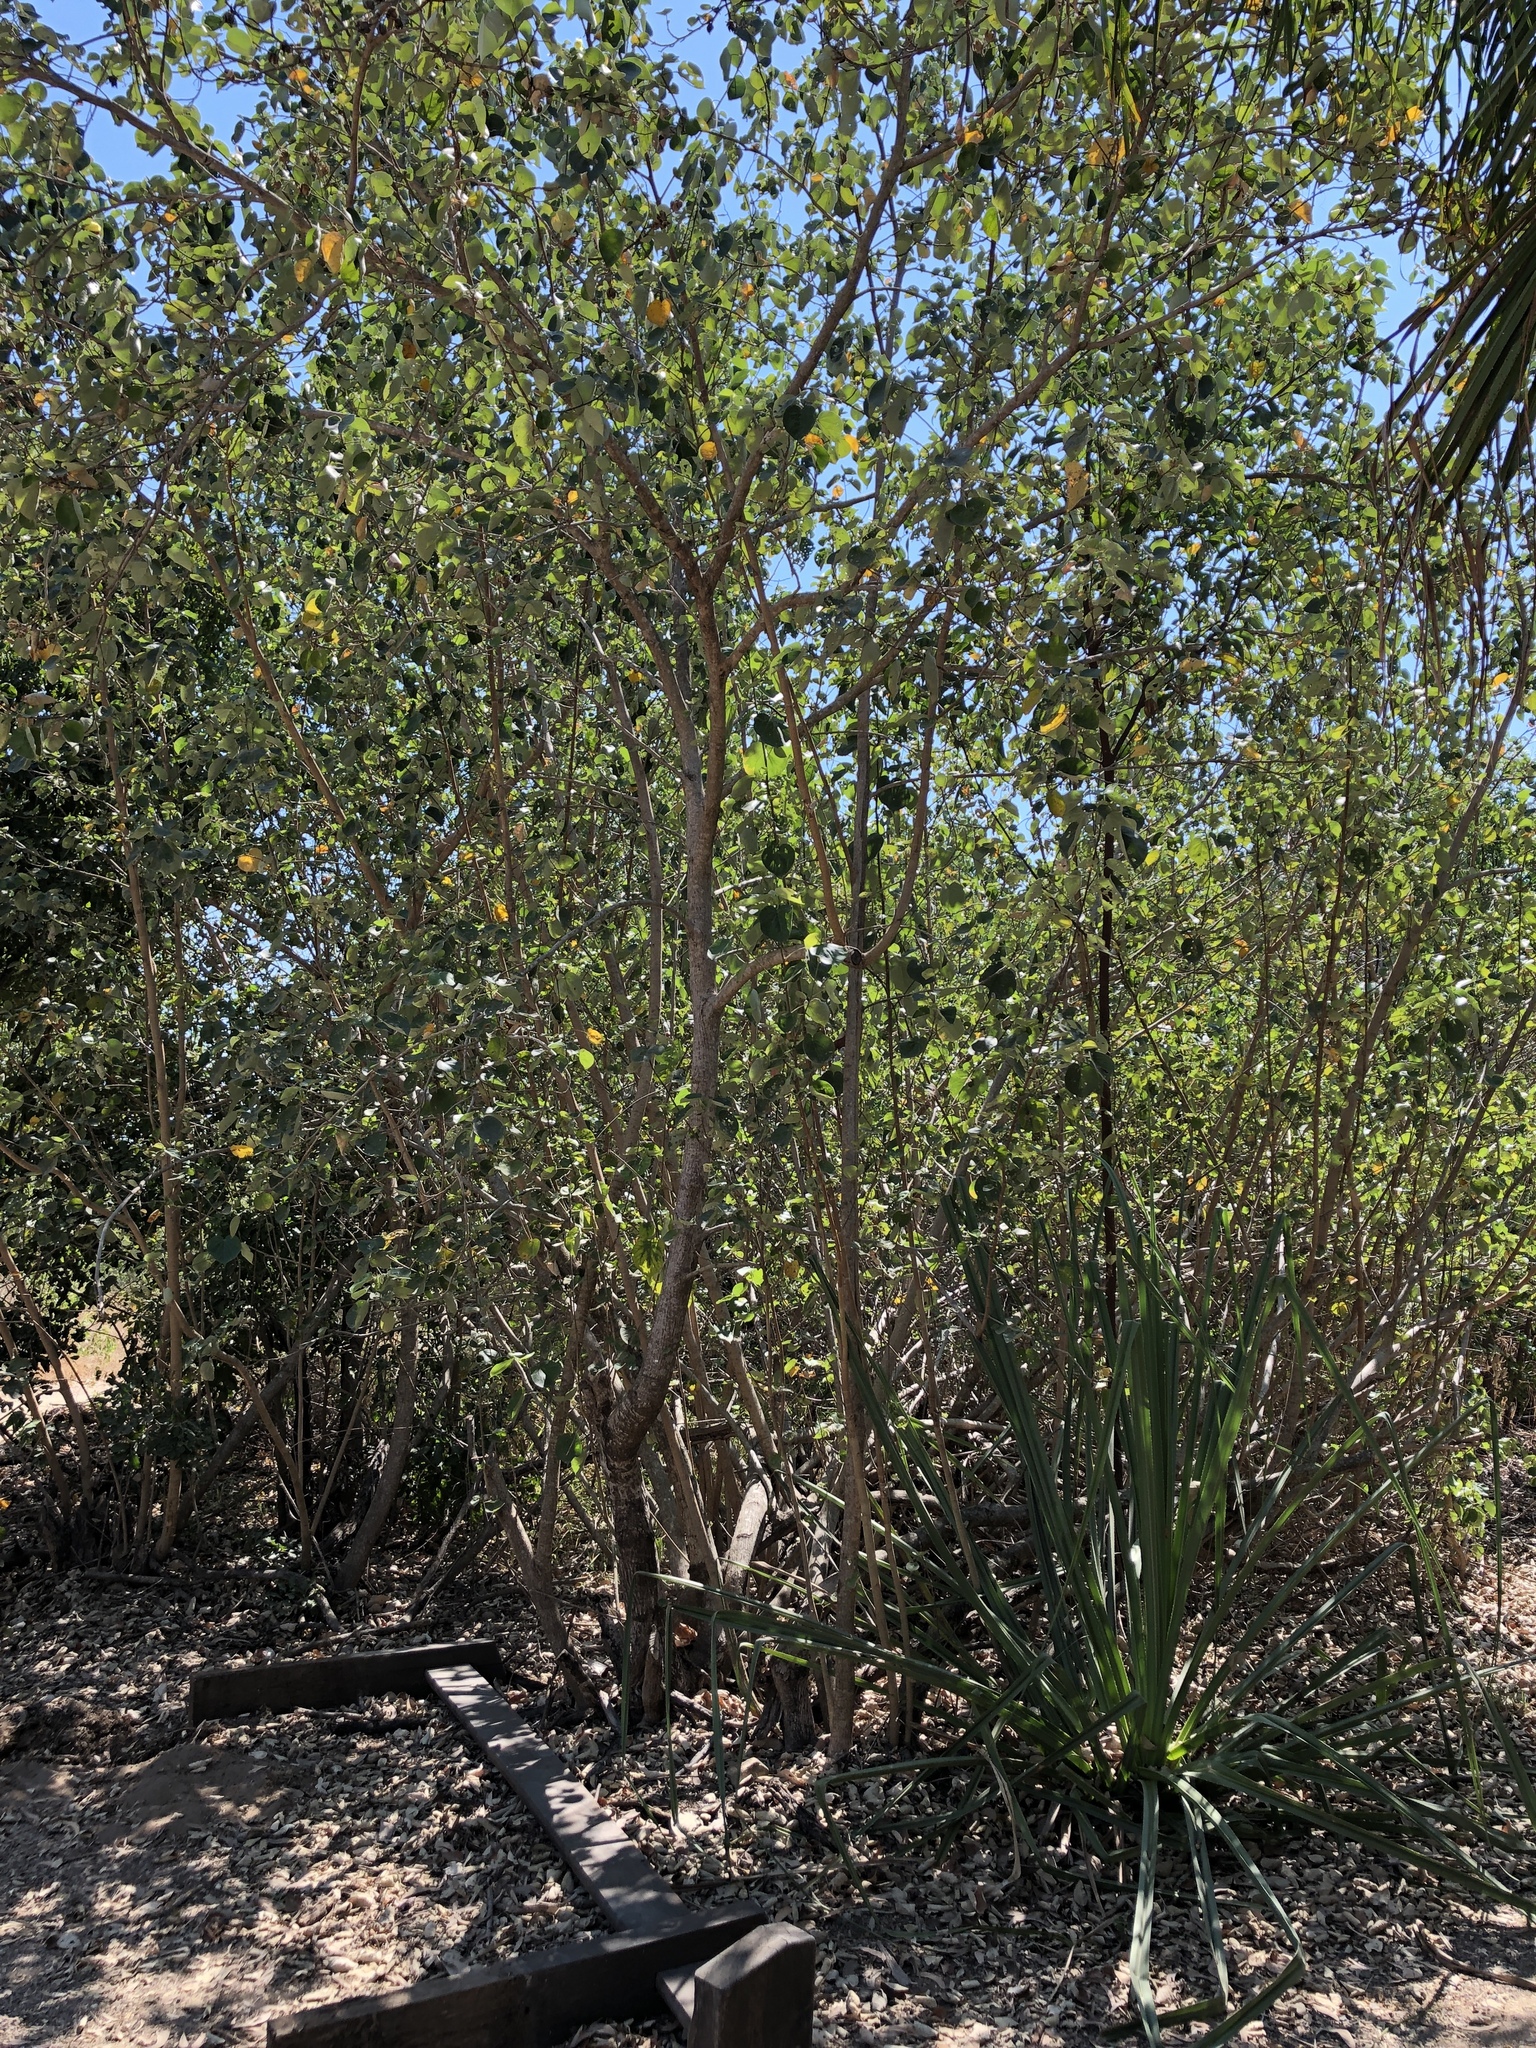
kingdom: Plantae
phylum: Tracheophyta
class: Magnoliopsida
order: Malvales
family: Malvaceae
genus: Talipariti
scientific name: Talipariti tiliaceum
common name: Sea hibiscus
